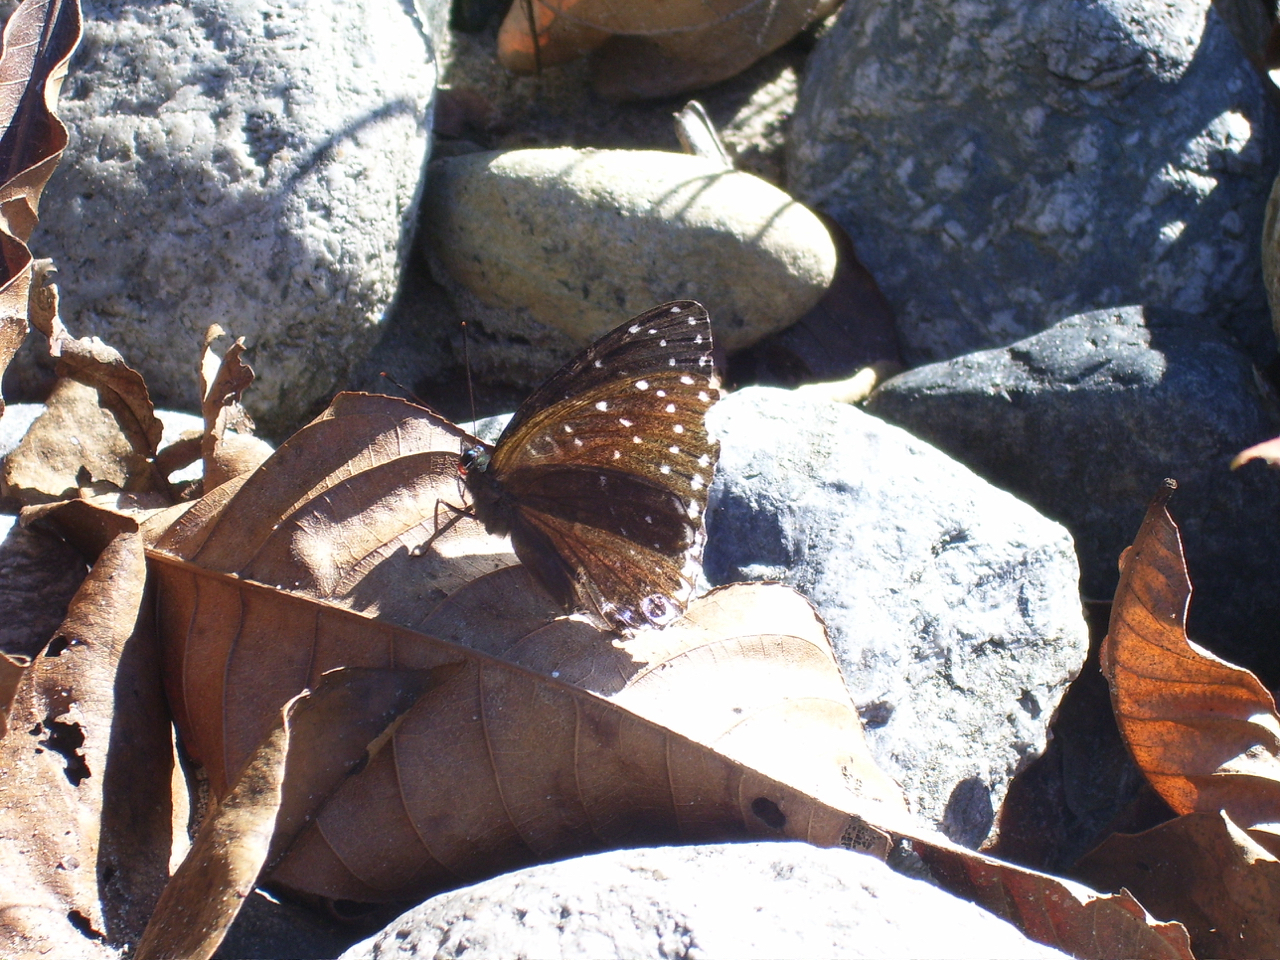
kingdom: Animalia
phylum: Arthropoda
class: Insecta
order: Lepidoptera
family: Nymphalidae
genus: Stibochiona
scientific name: Stibochiona nicea
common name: Popinjay
